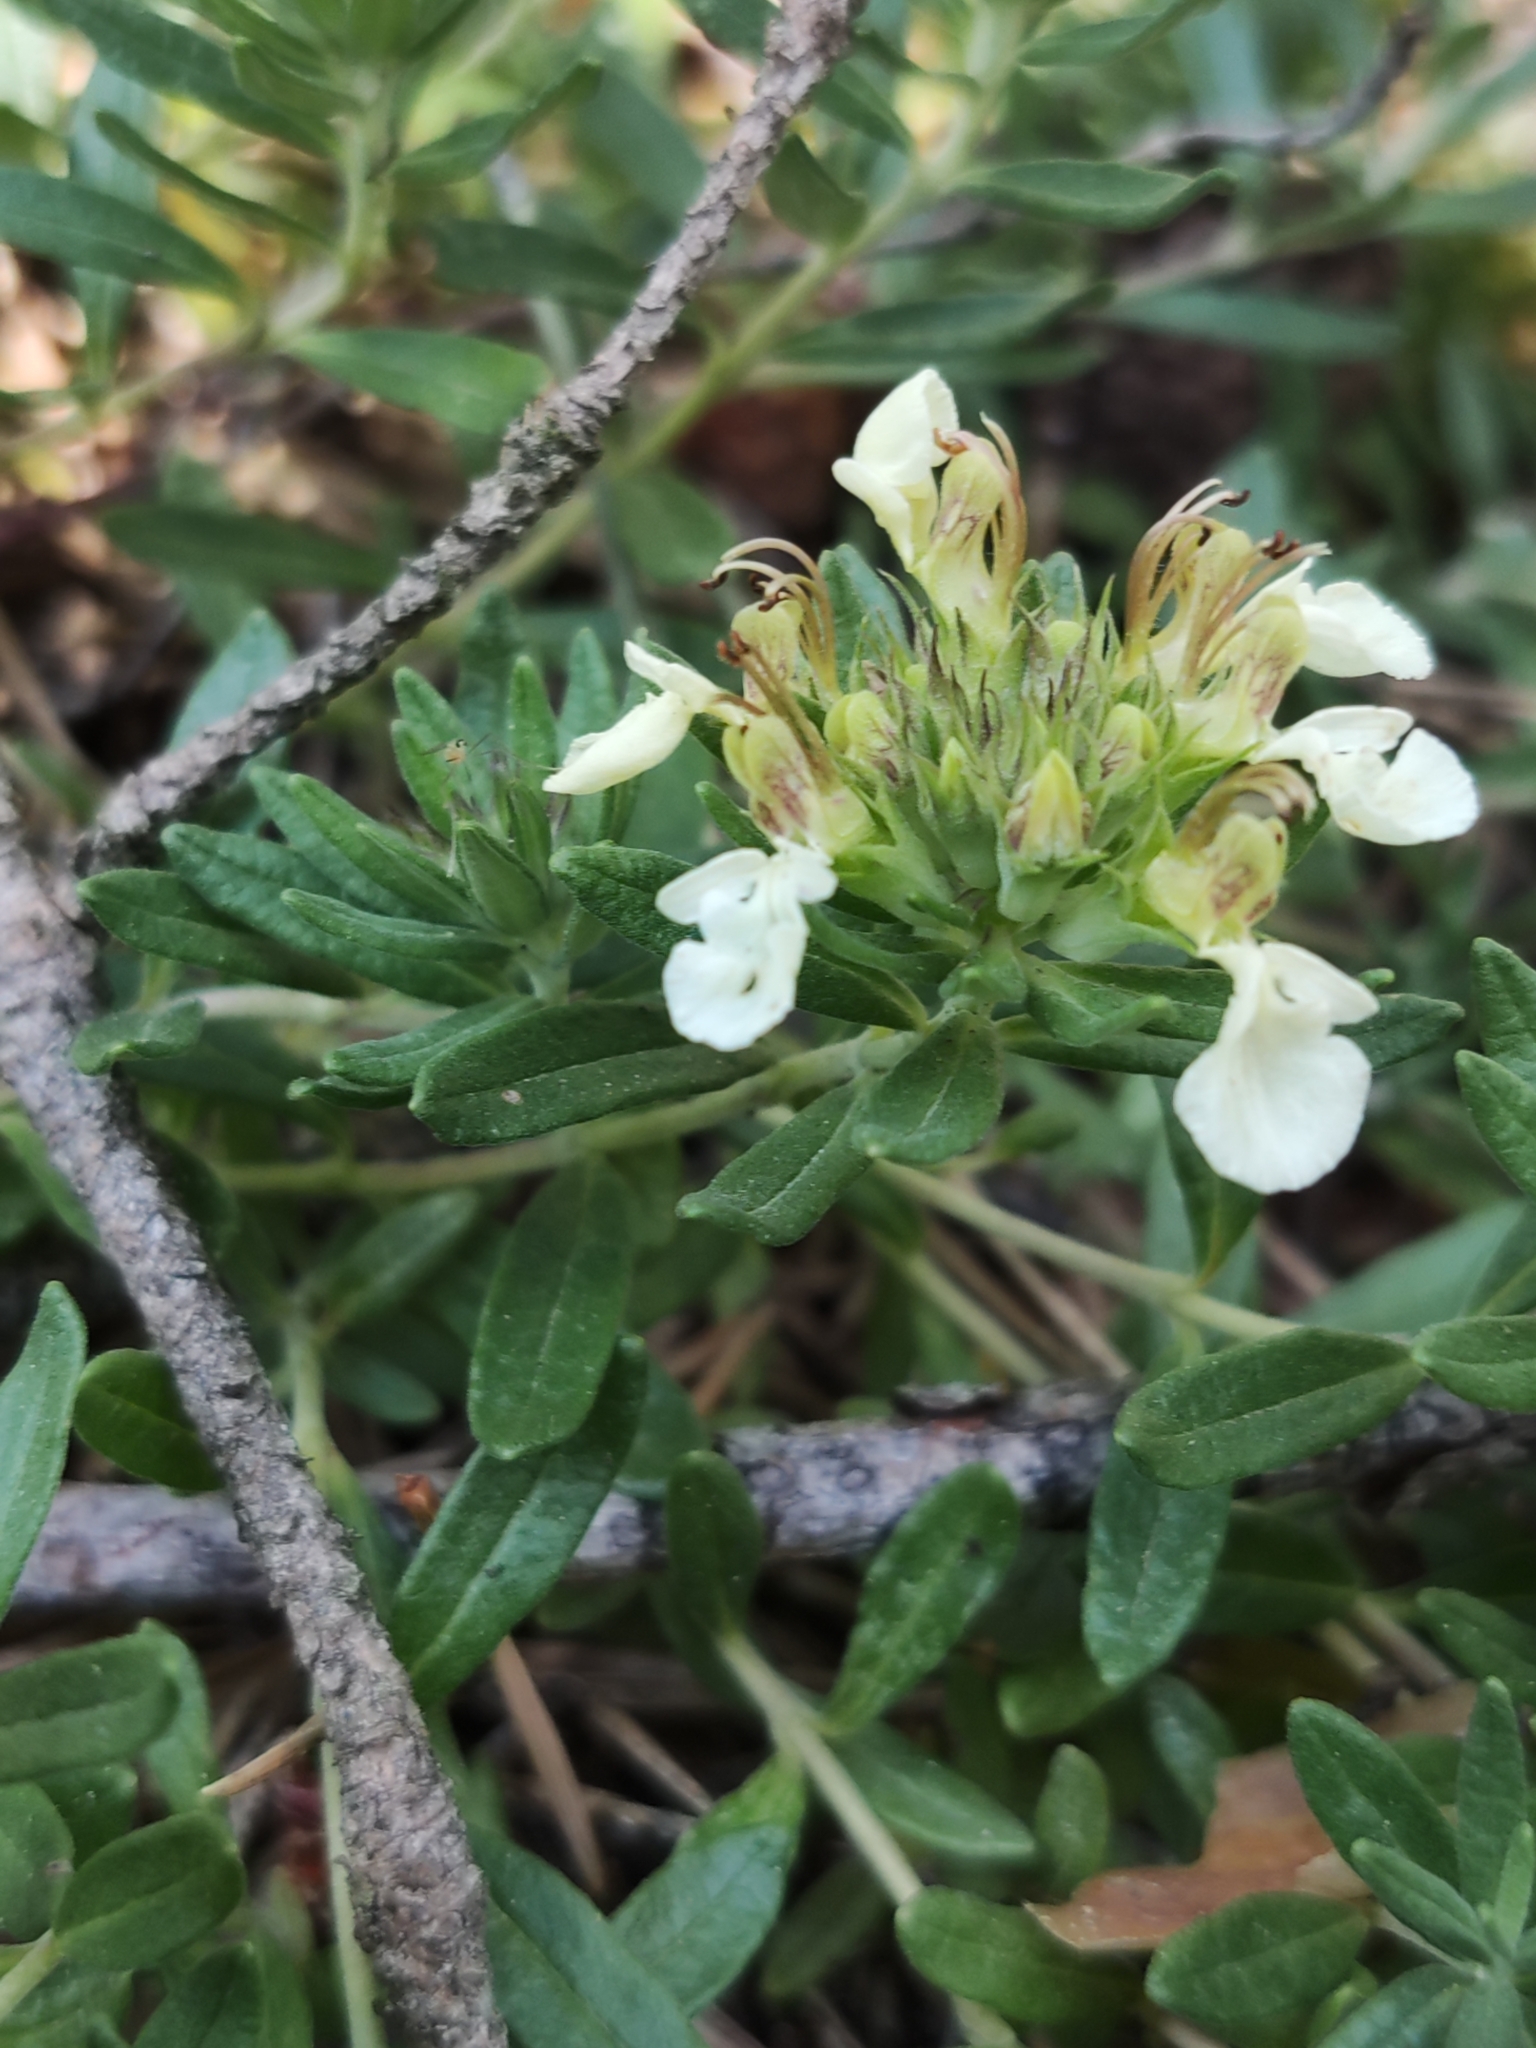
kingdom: Plantae
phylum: Tracheophyta
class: Magnoliopsida
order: Lamiales
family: Lamiaceae
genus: Teucrium
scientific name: Teucrium montanum
